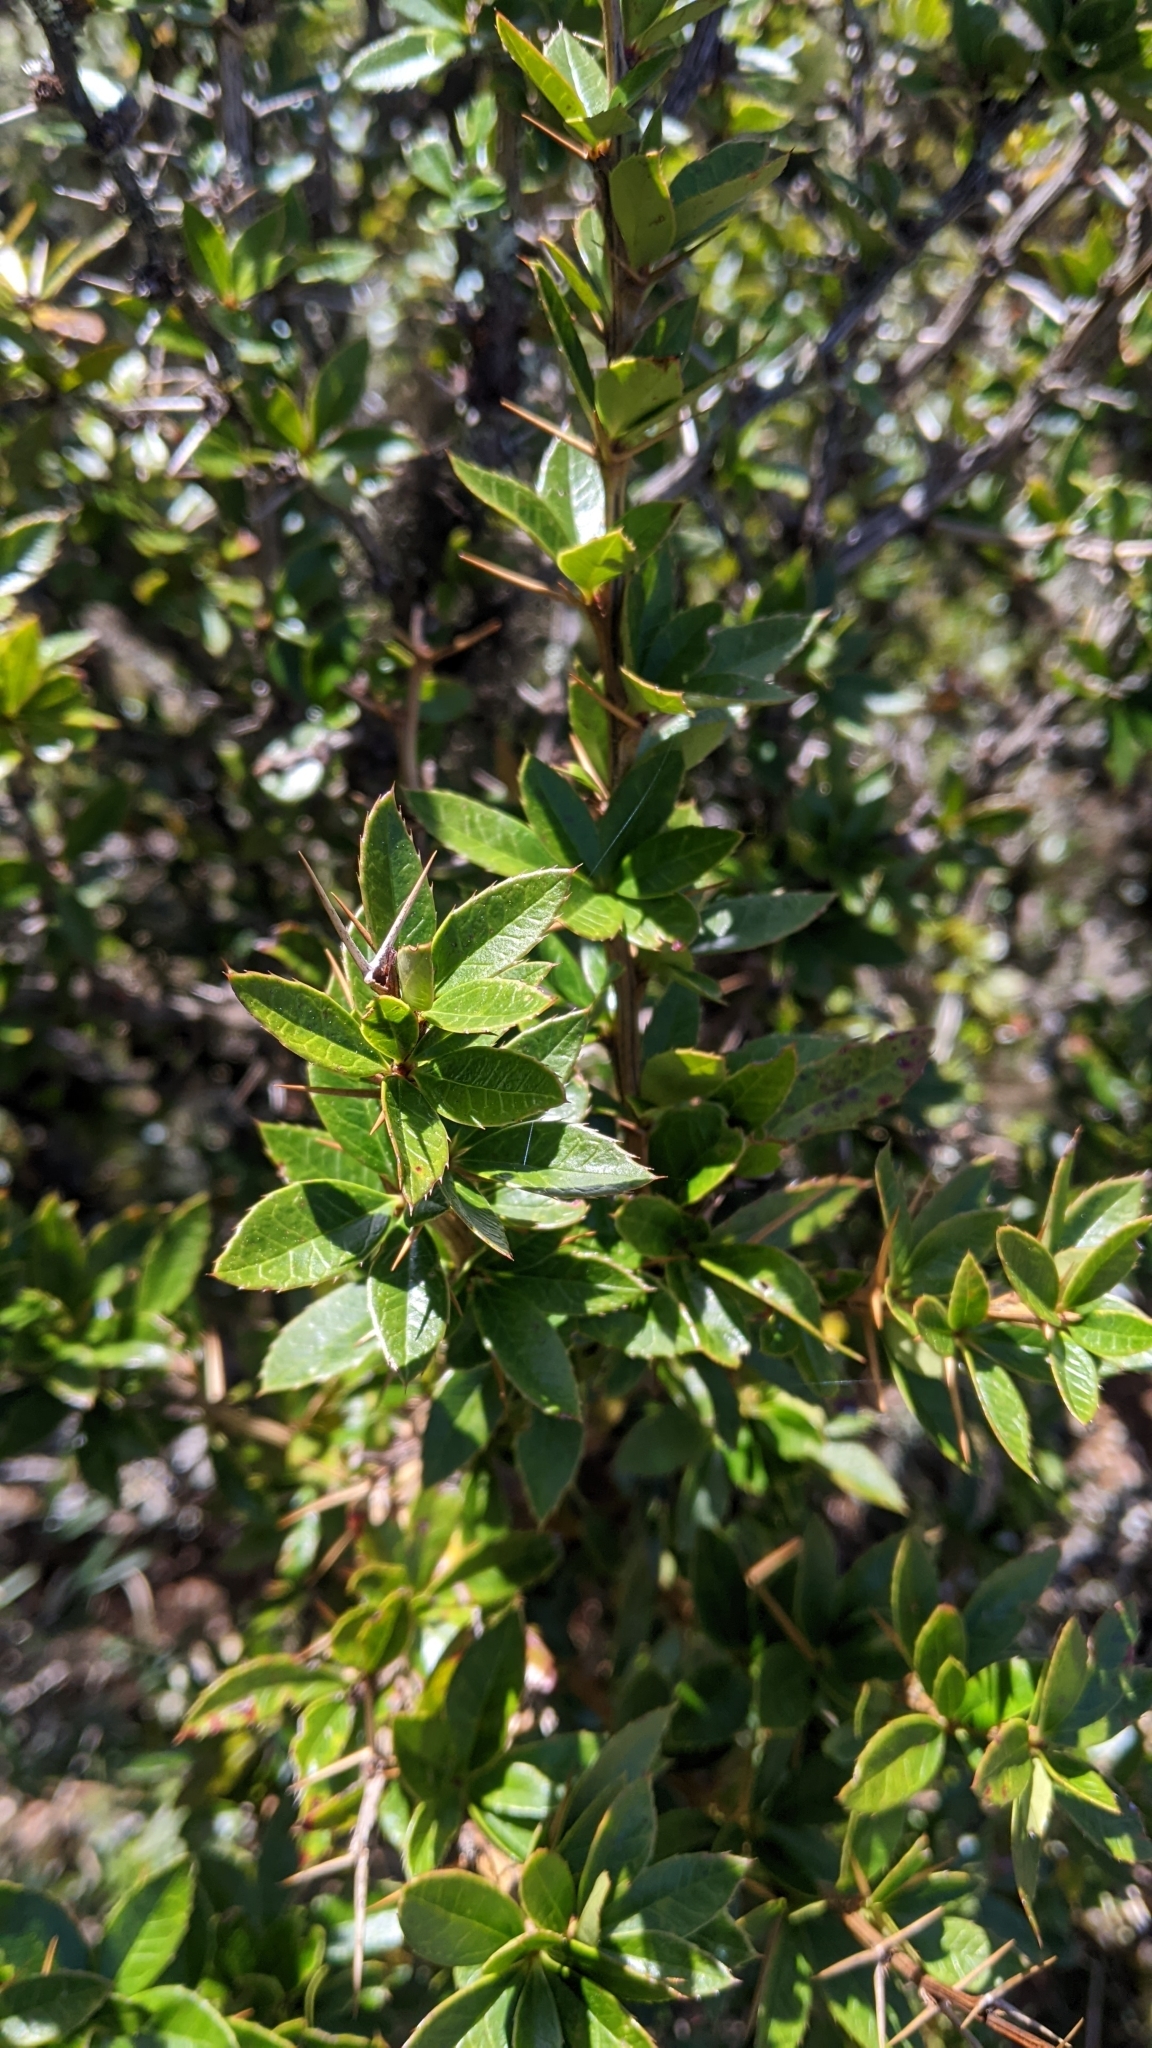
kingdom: Plantae
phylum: Tracheophyta
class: Magnoliopsida
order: Ranunculales
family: Berberidaceae
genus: Berberis
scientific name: Berberis kawakamii
